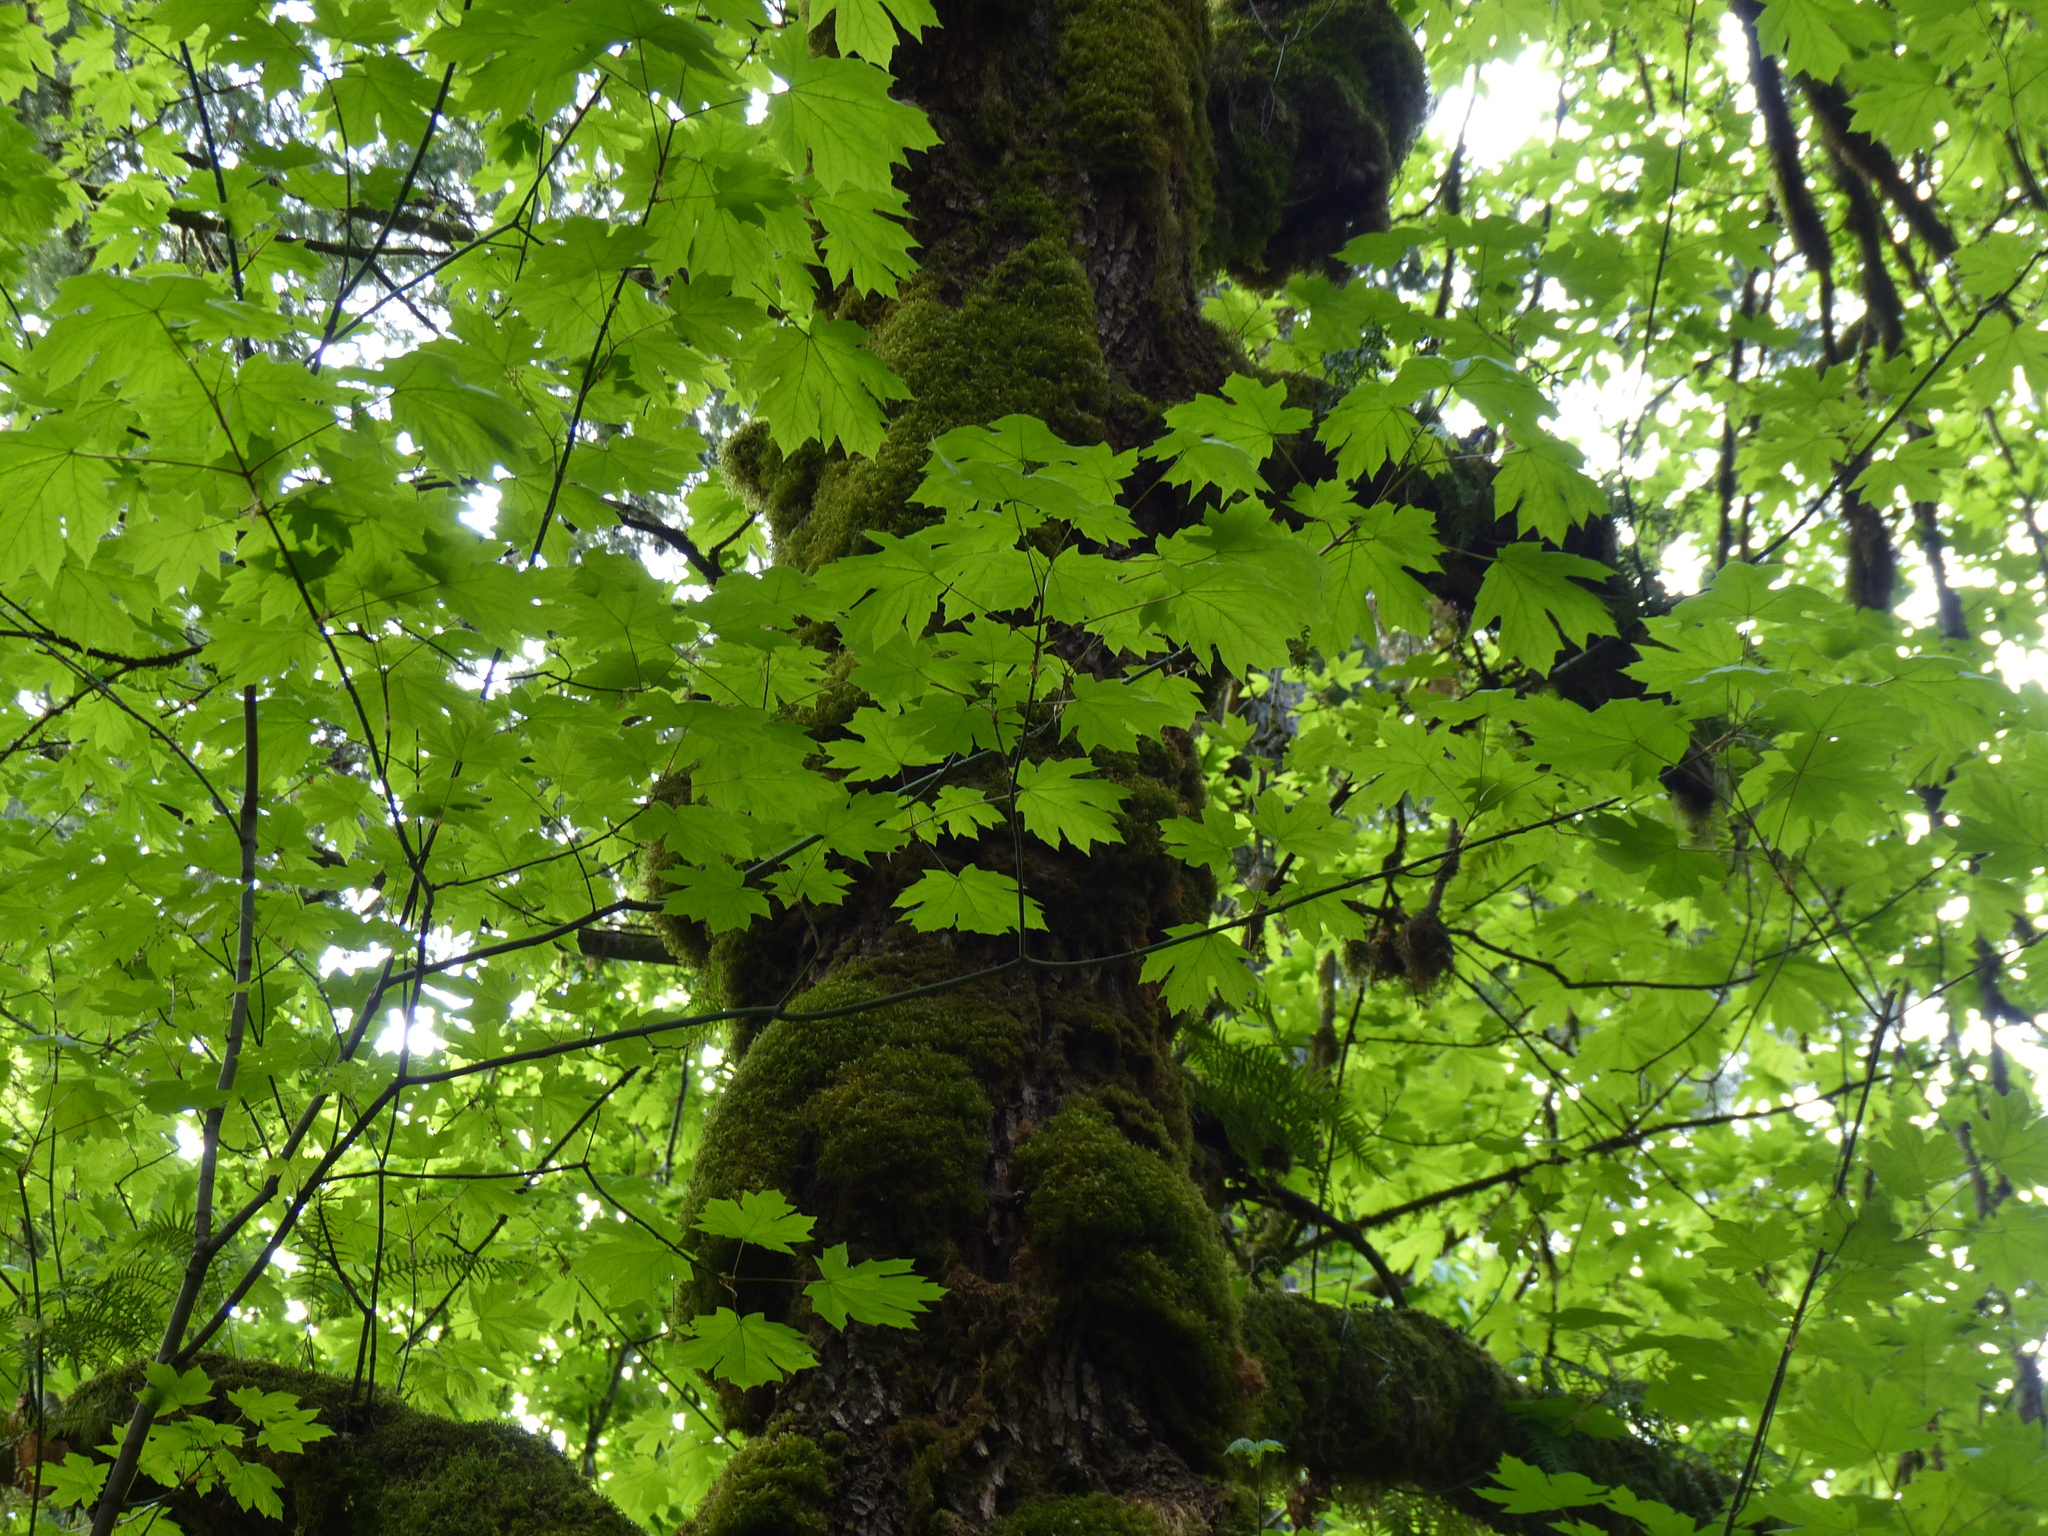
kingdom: Plantae
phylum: Tracheophyta
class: Magnoliopsida
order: Sapindales
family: Sapindaceae
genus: Acer
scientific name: Acer macrophyllum
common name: Oregon maple
